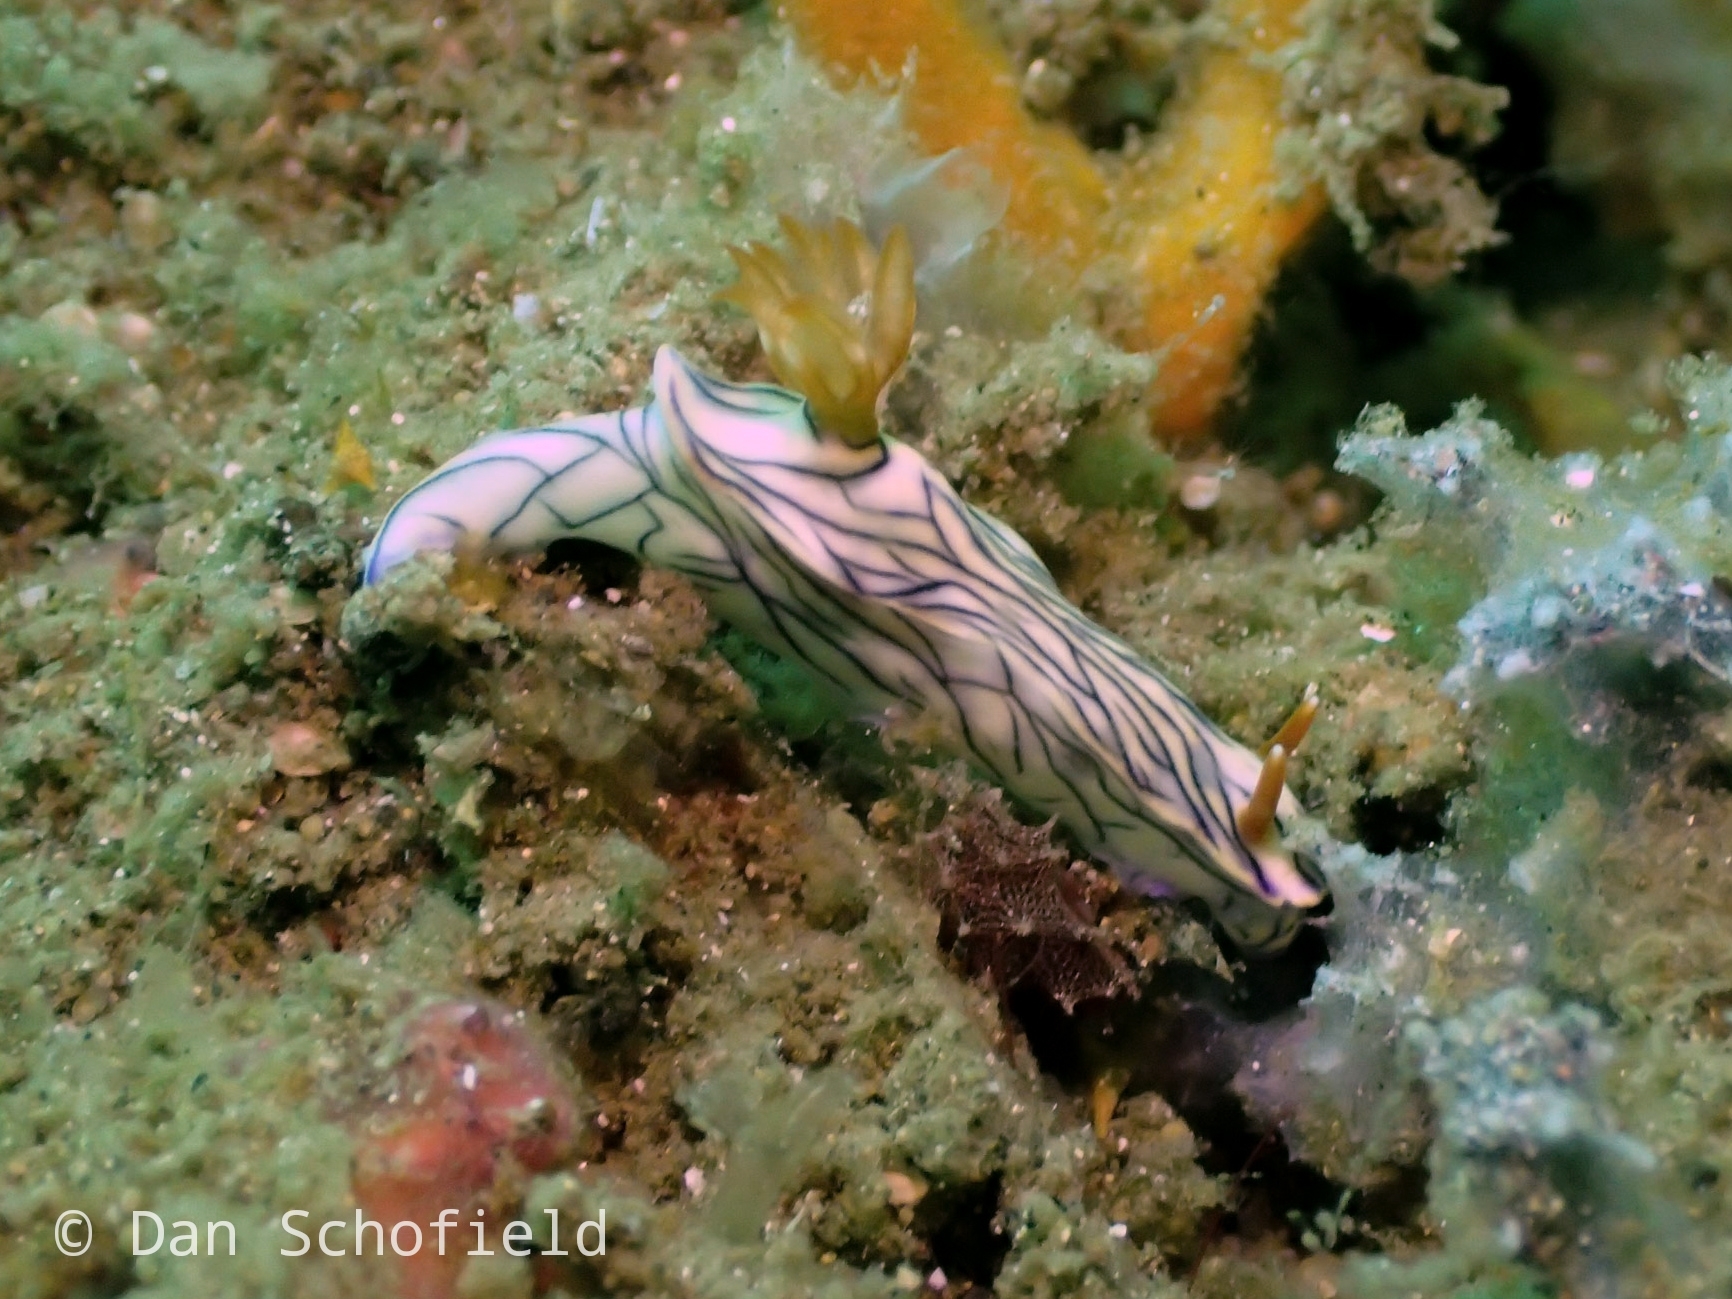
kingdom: Animalia
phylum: Mollusca
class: Gastropoda
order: Nudibranchia
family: Chromodorididae
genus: Hypselodoris
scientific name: Hypselodoris zephyra
